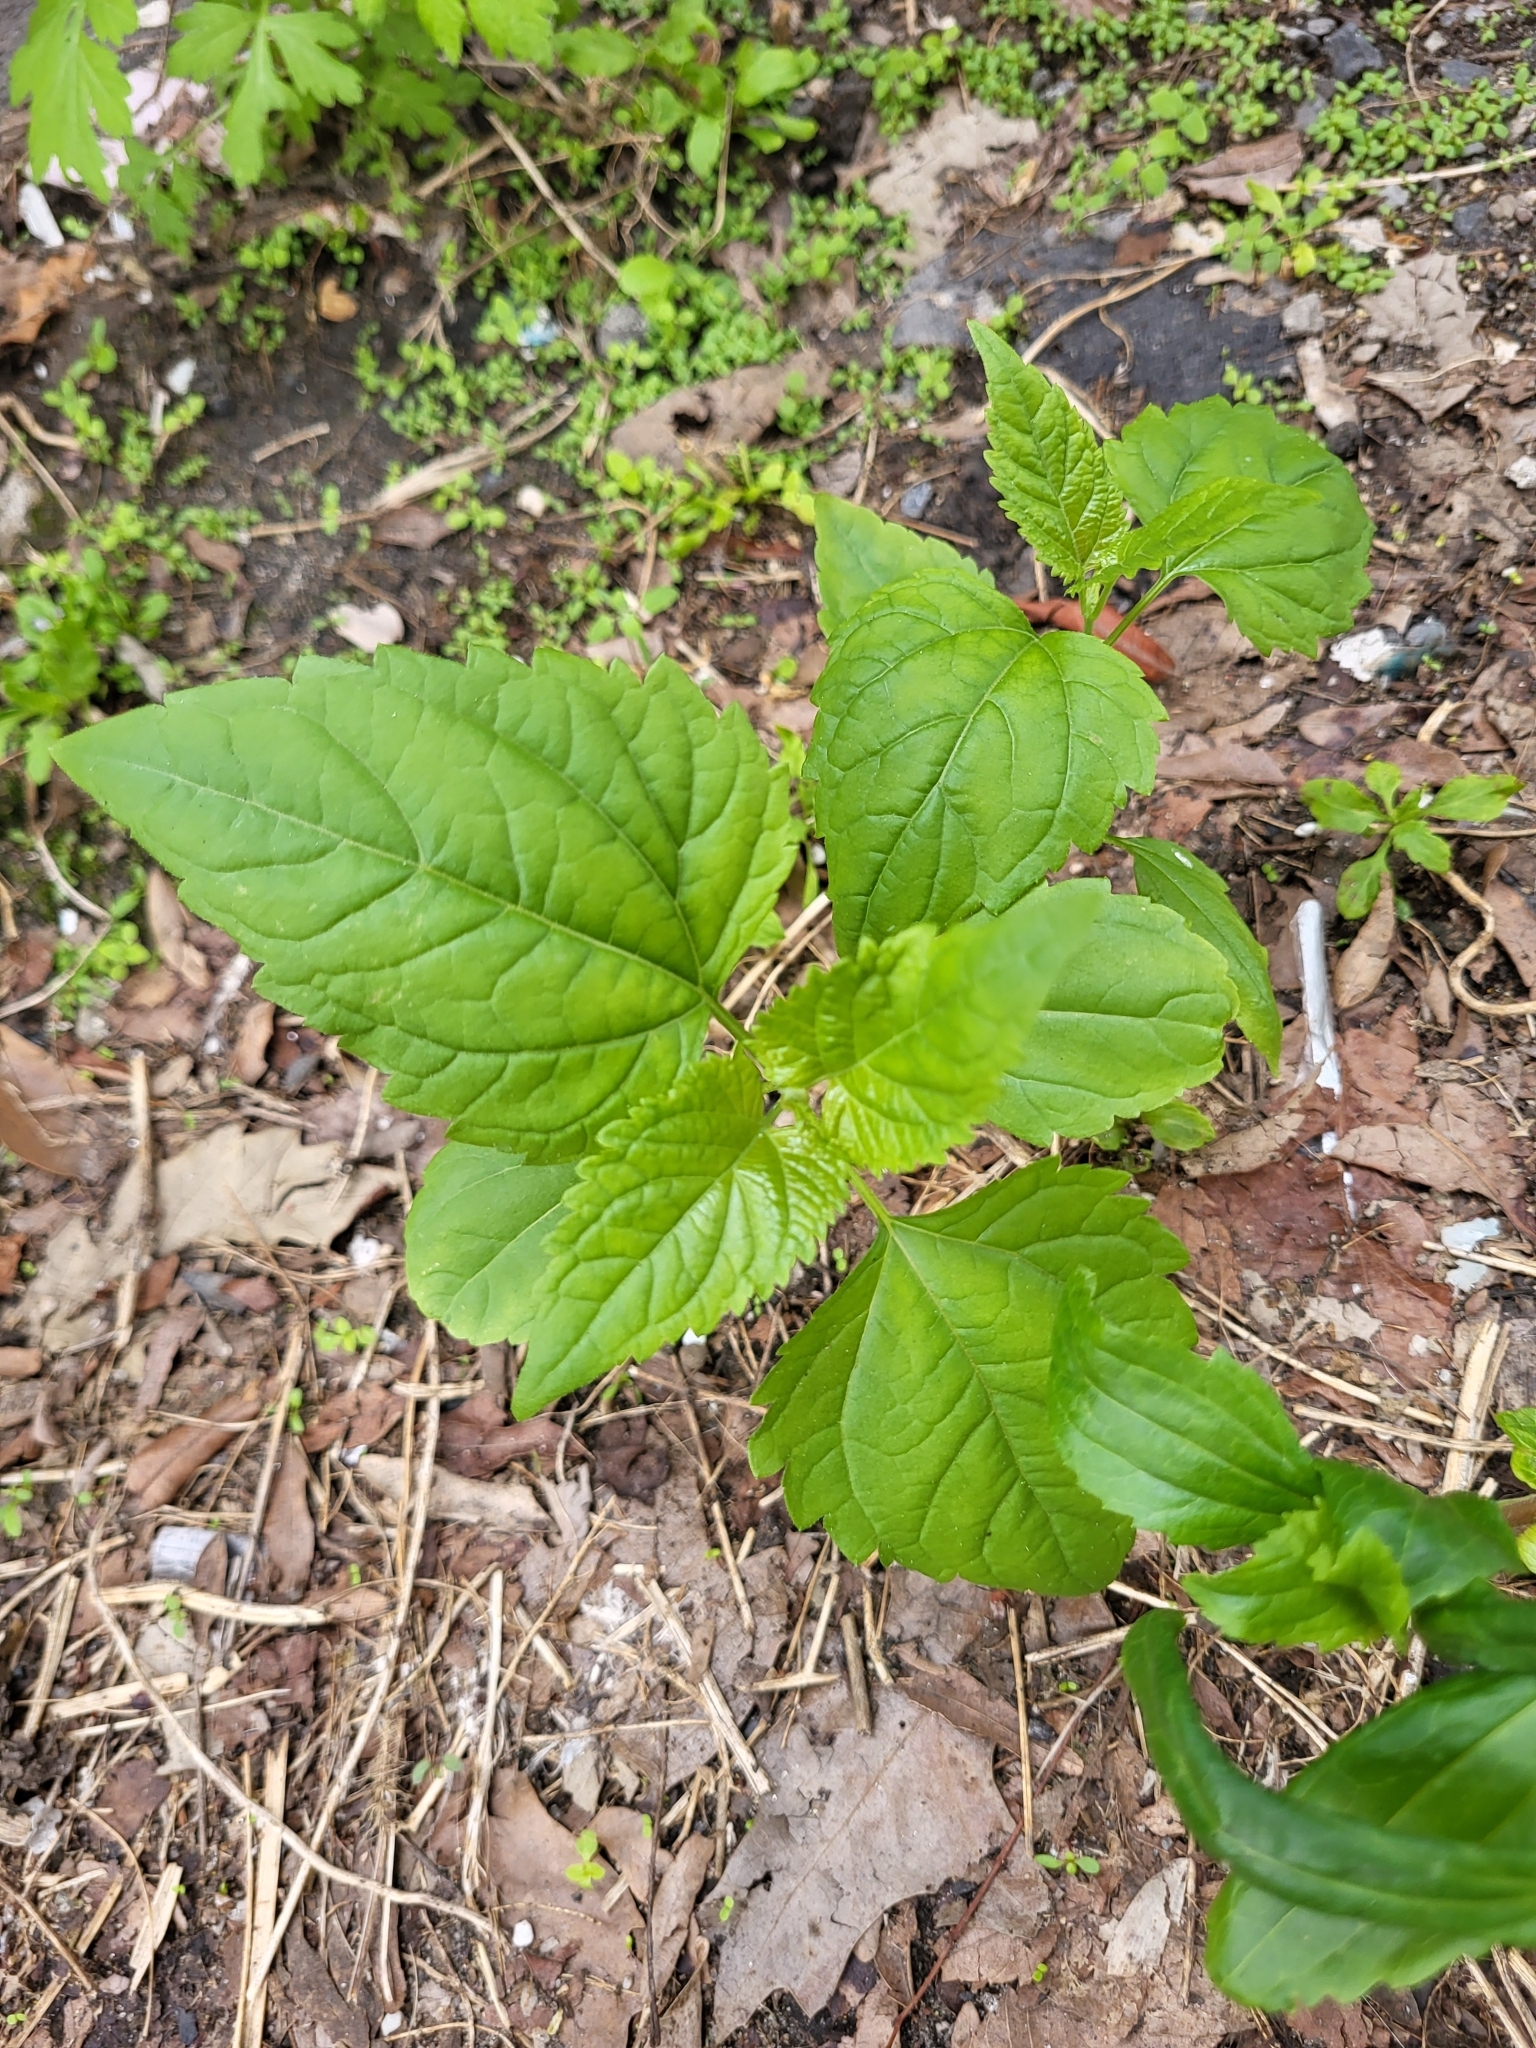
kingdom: Plantae
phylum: Tracheophyta
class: Magnoliopsida
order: Asterales
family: Asteraceae
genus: Ageratina
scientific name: Ageratina altissima
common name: White snakeroot
